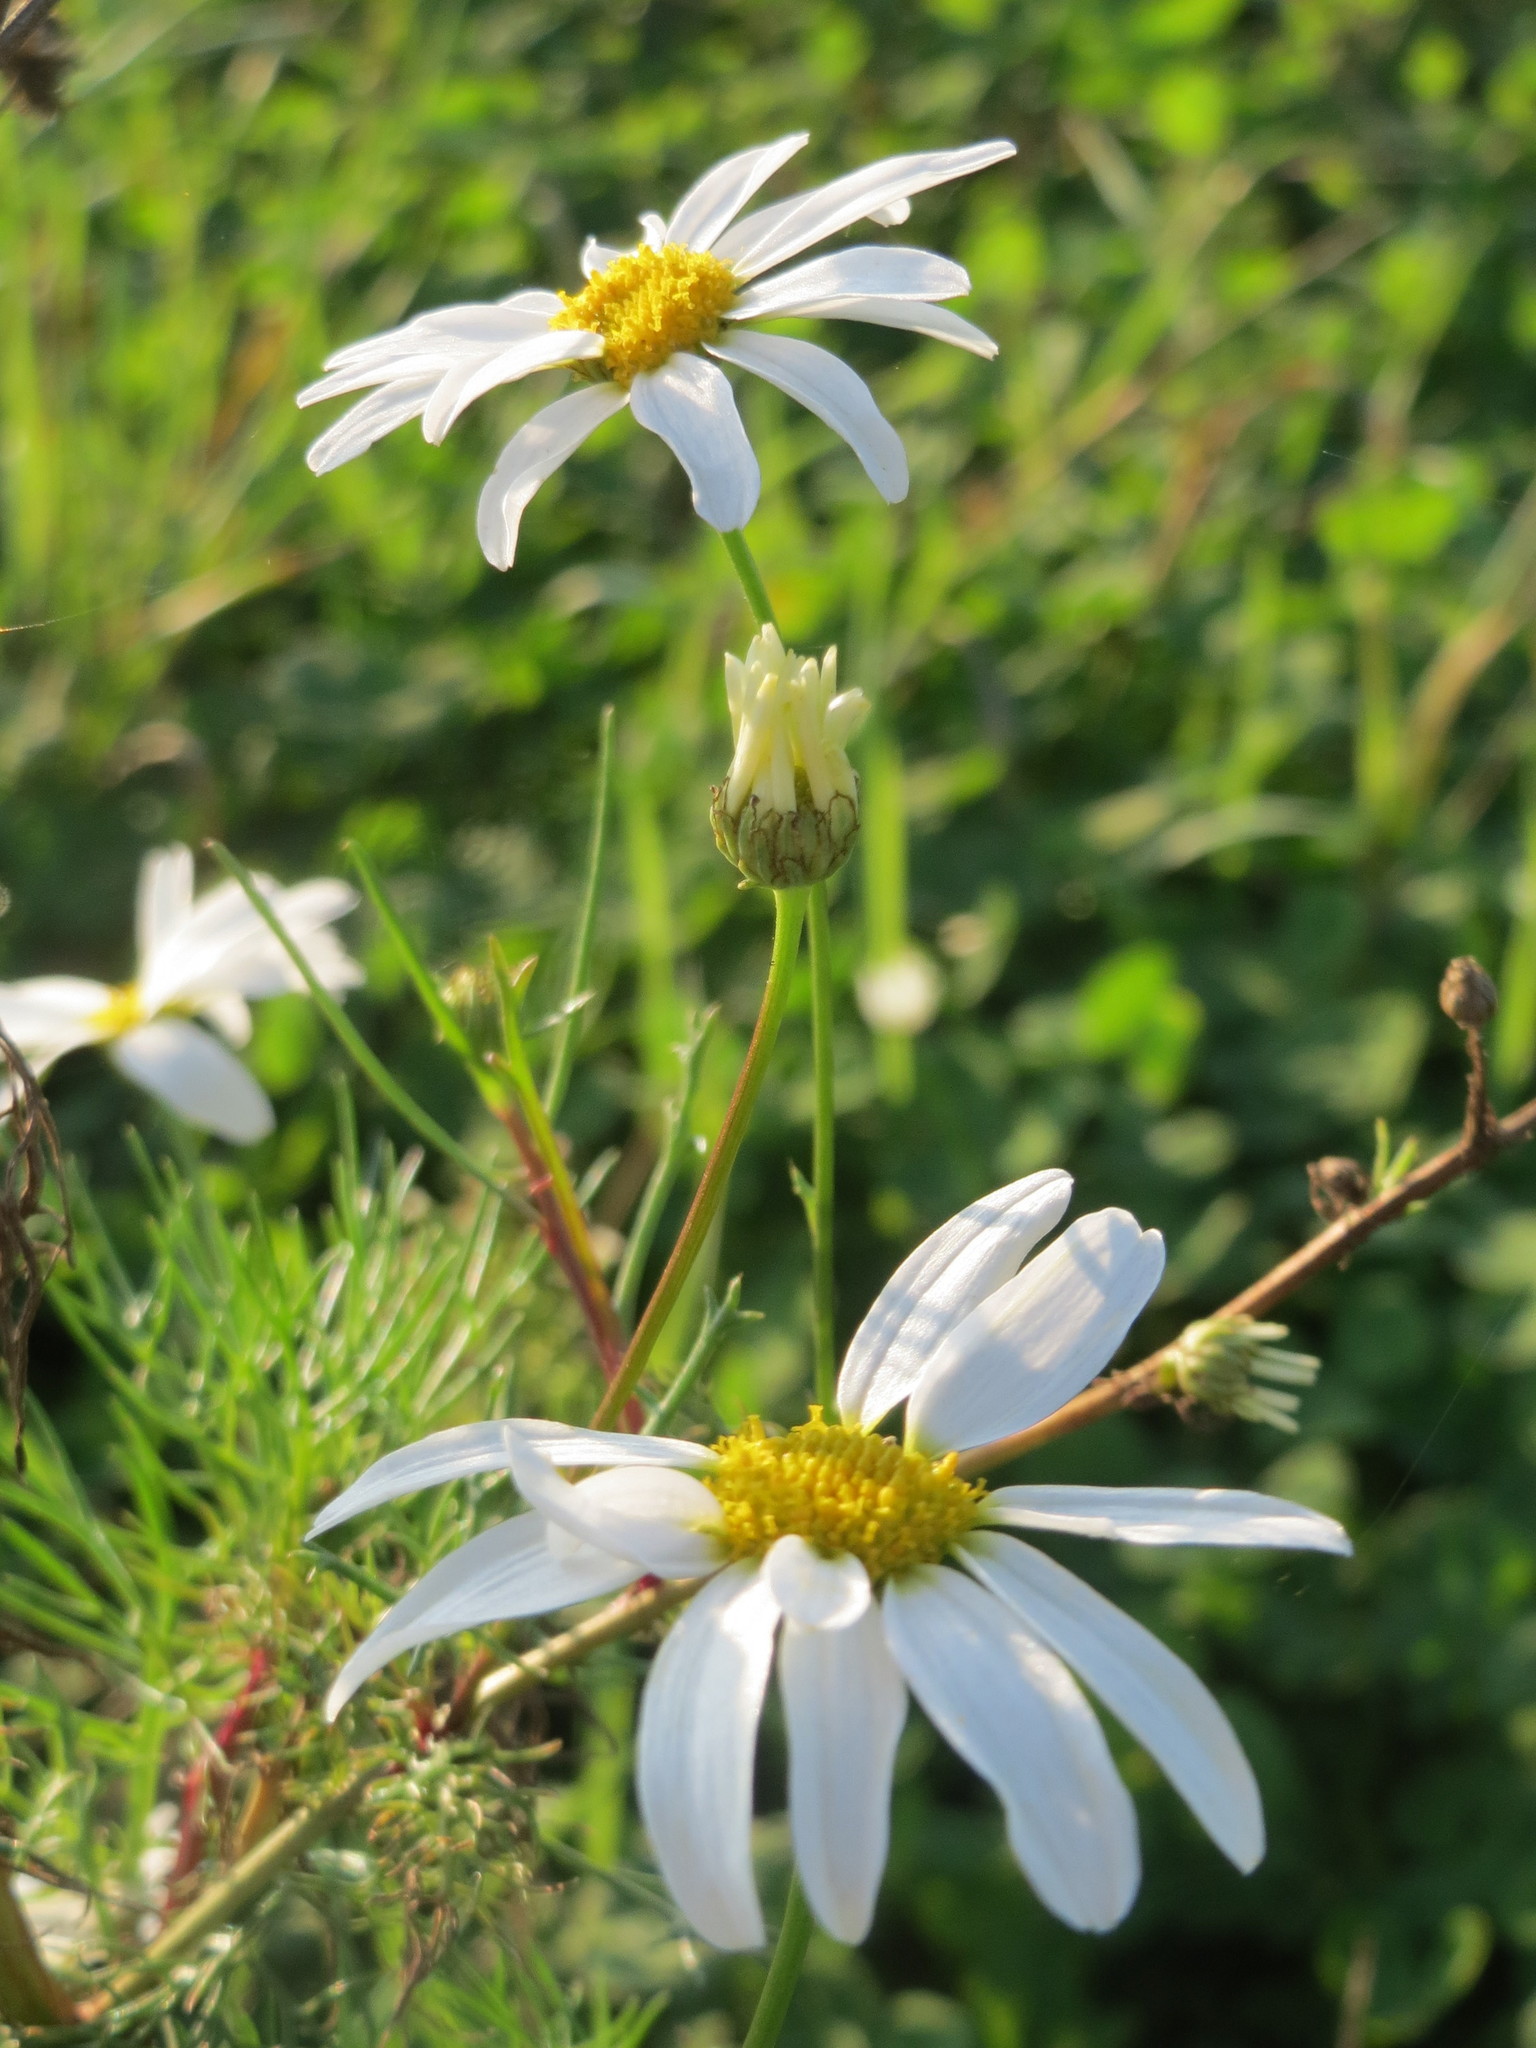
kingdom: Plantae
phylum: Tracheophyta
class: Magnoliopsida
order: Asterales
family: Asteraceae
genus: Tripleurospermum
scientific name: Tripleurospermum inodorum
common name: Scentless mayweed
